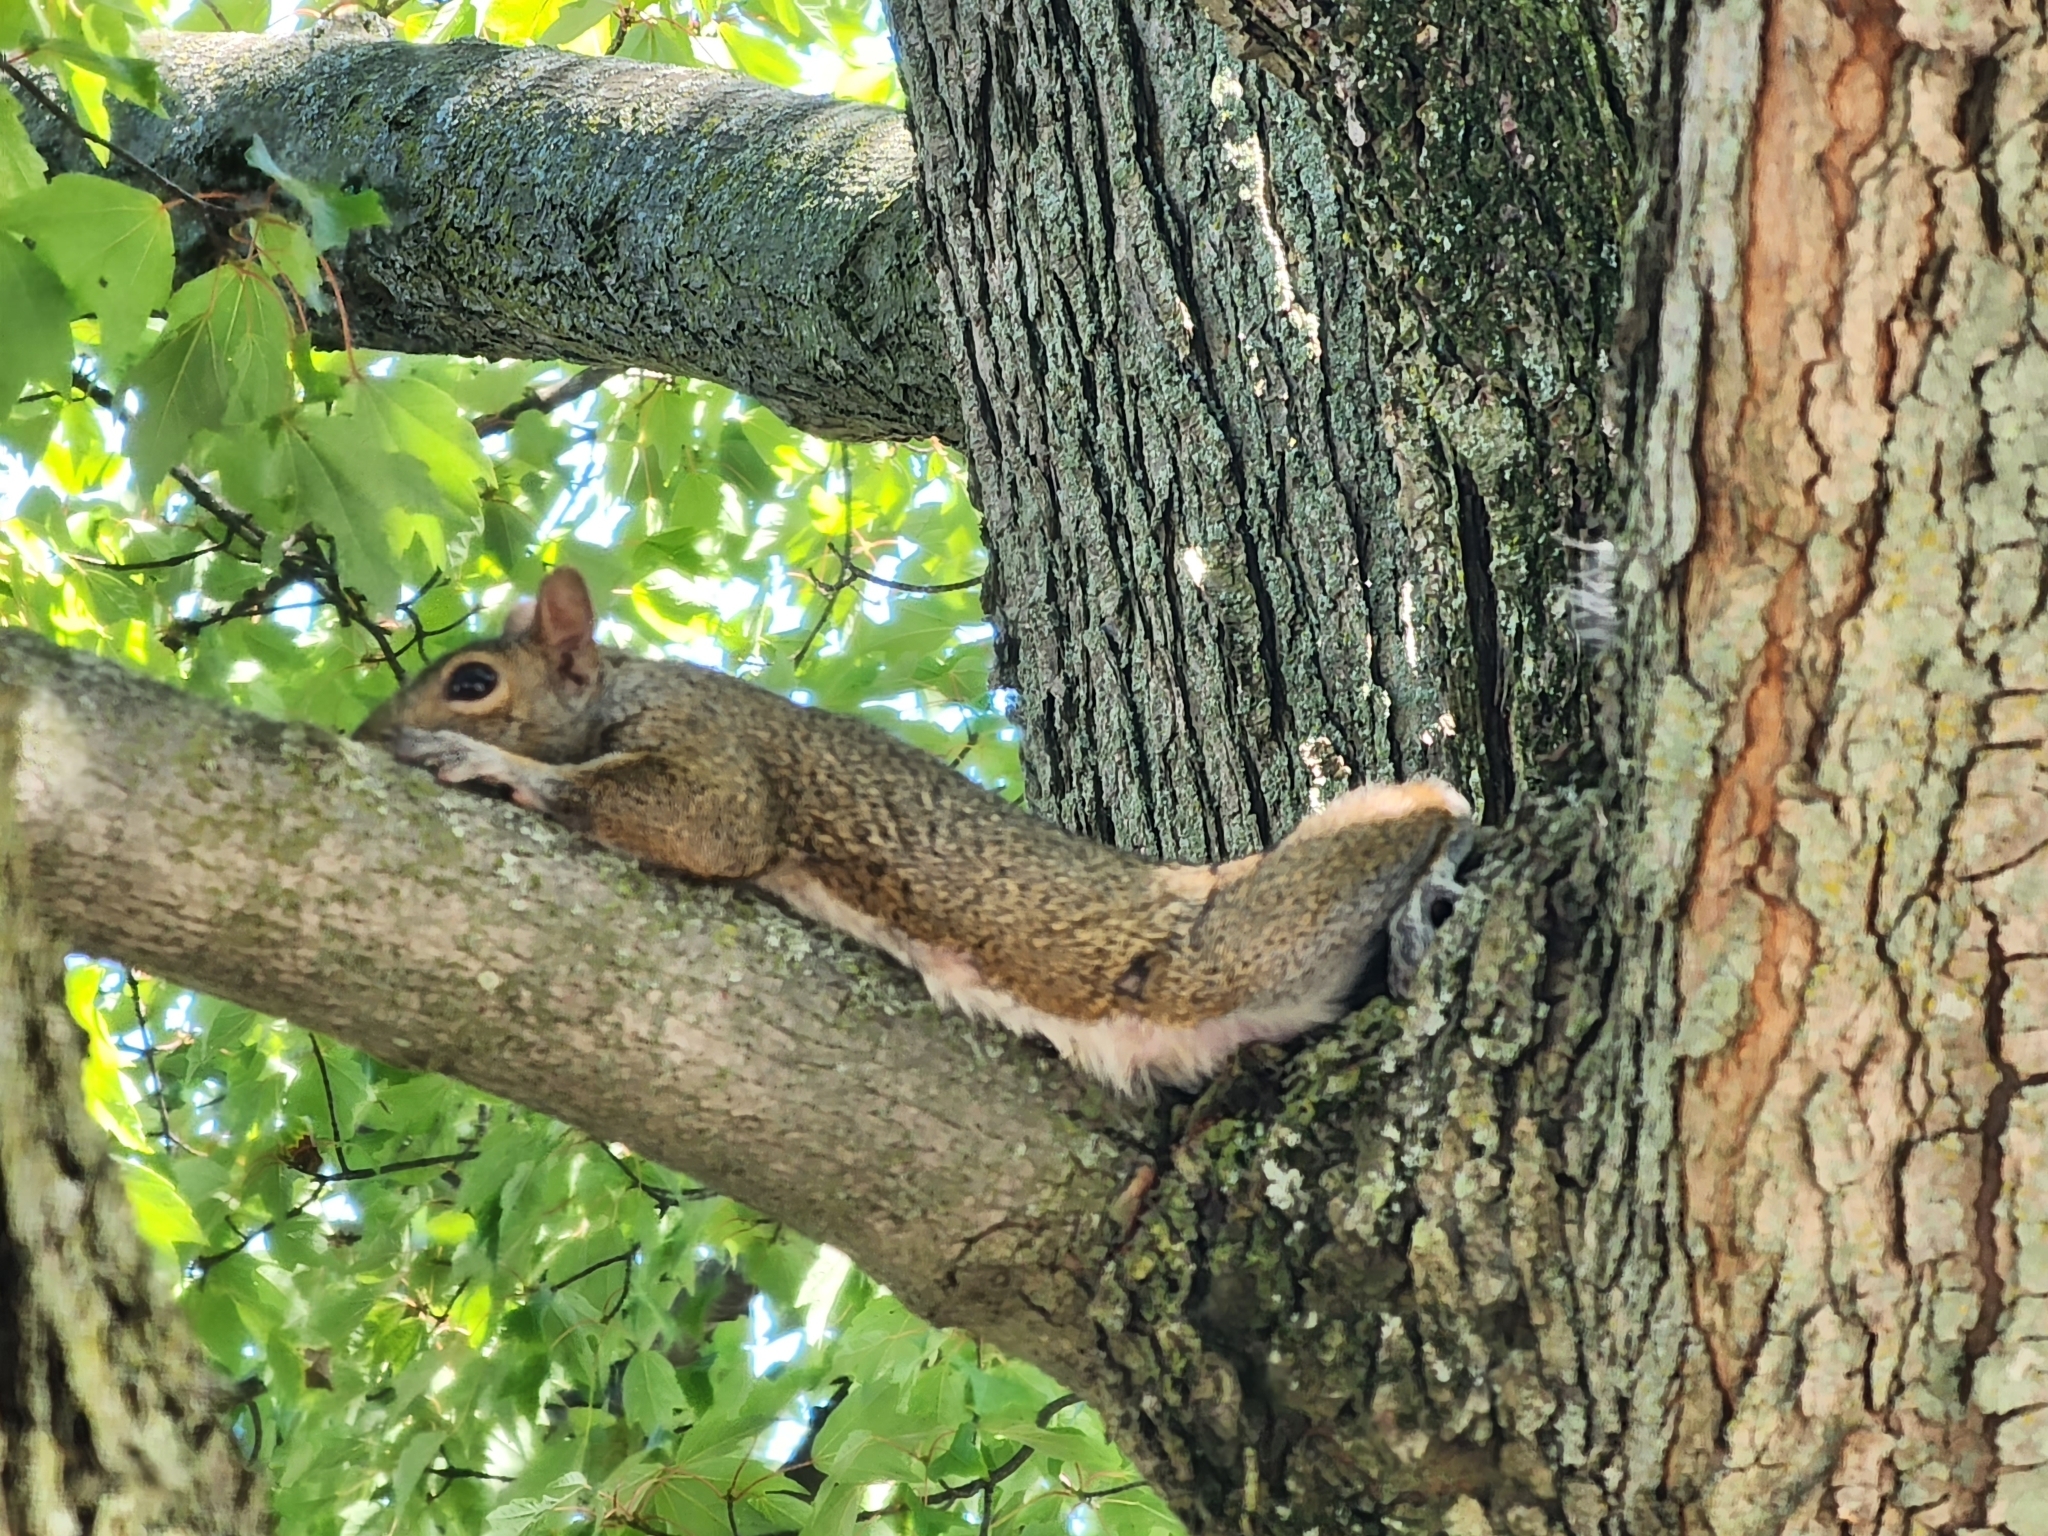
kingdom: Animalia
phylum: Chordata
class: Mammalia
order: Rodentia
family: Sciuridae
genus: Sciurus
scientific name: Sciurus carolinensis
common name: Eastern gray squirrel
